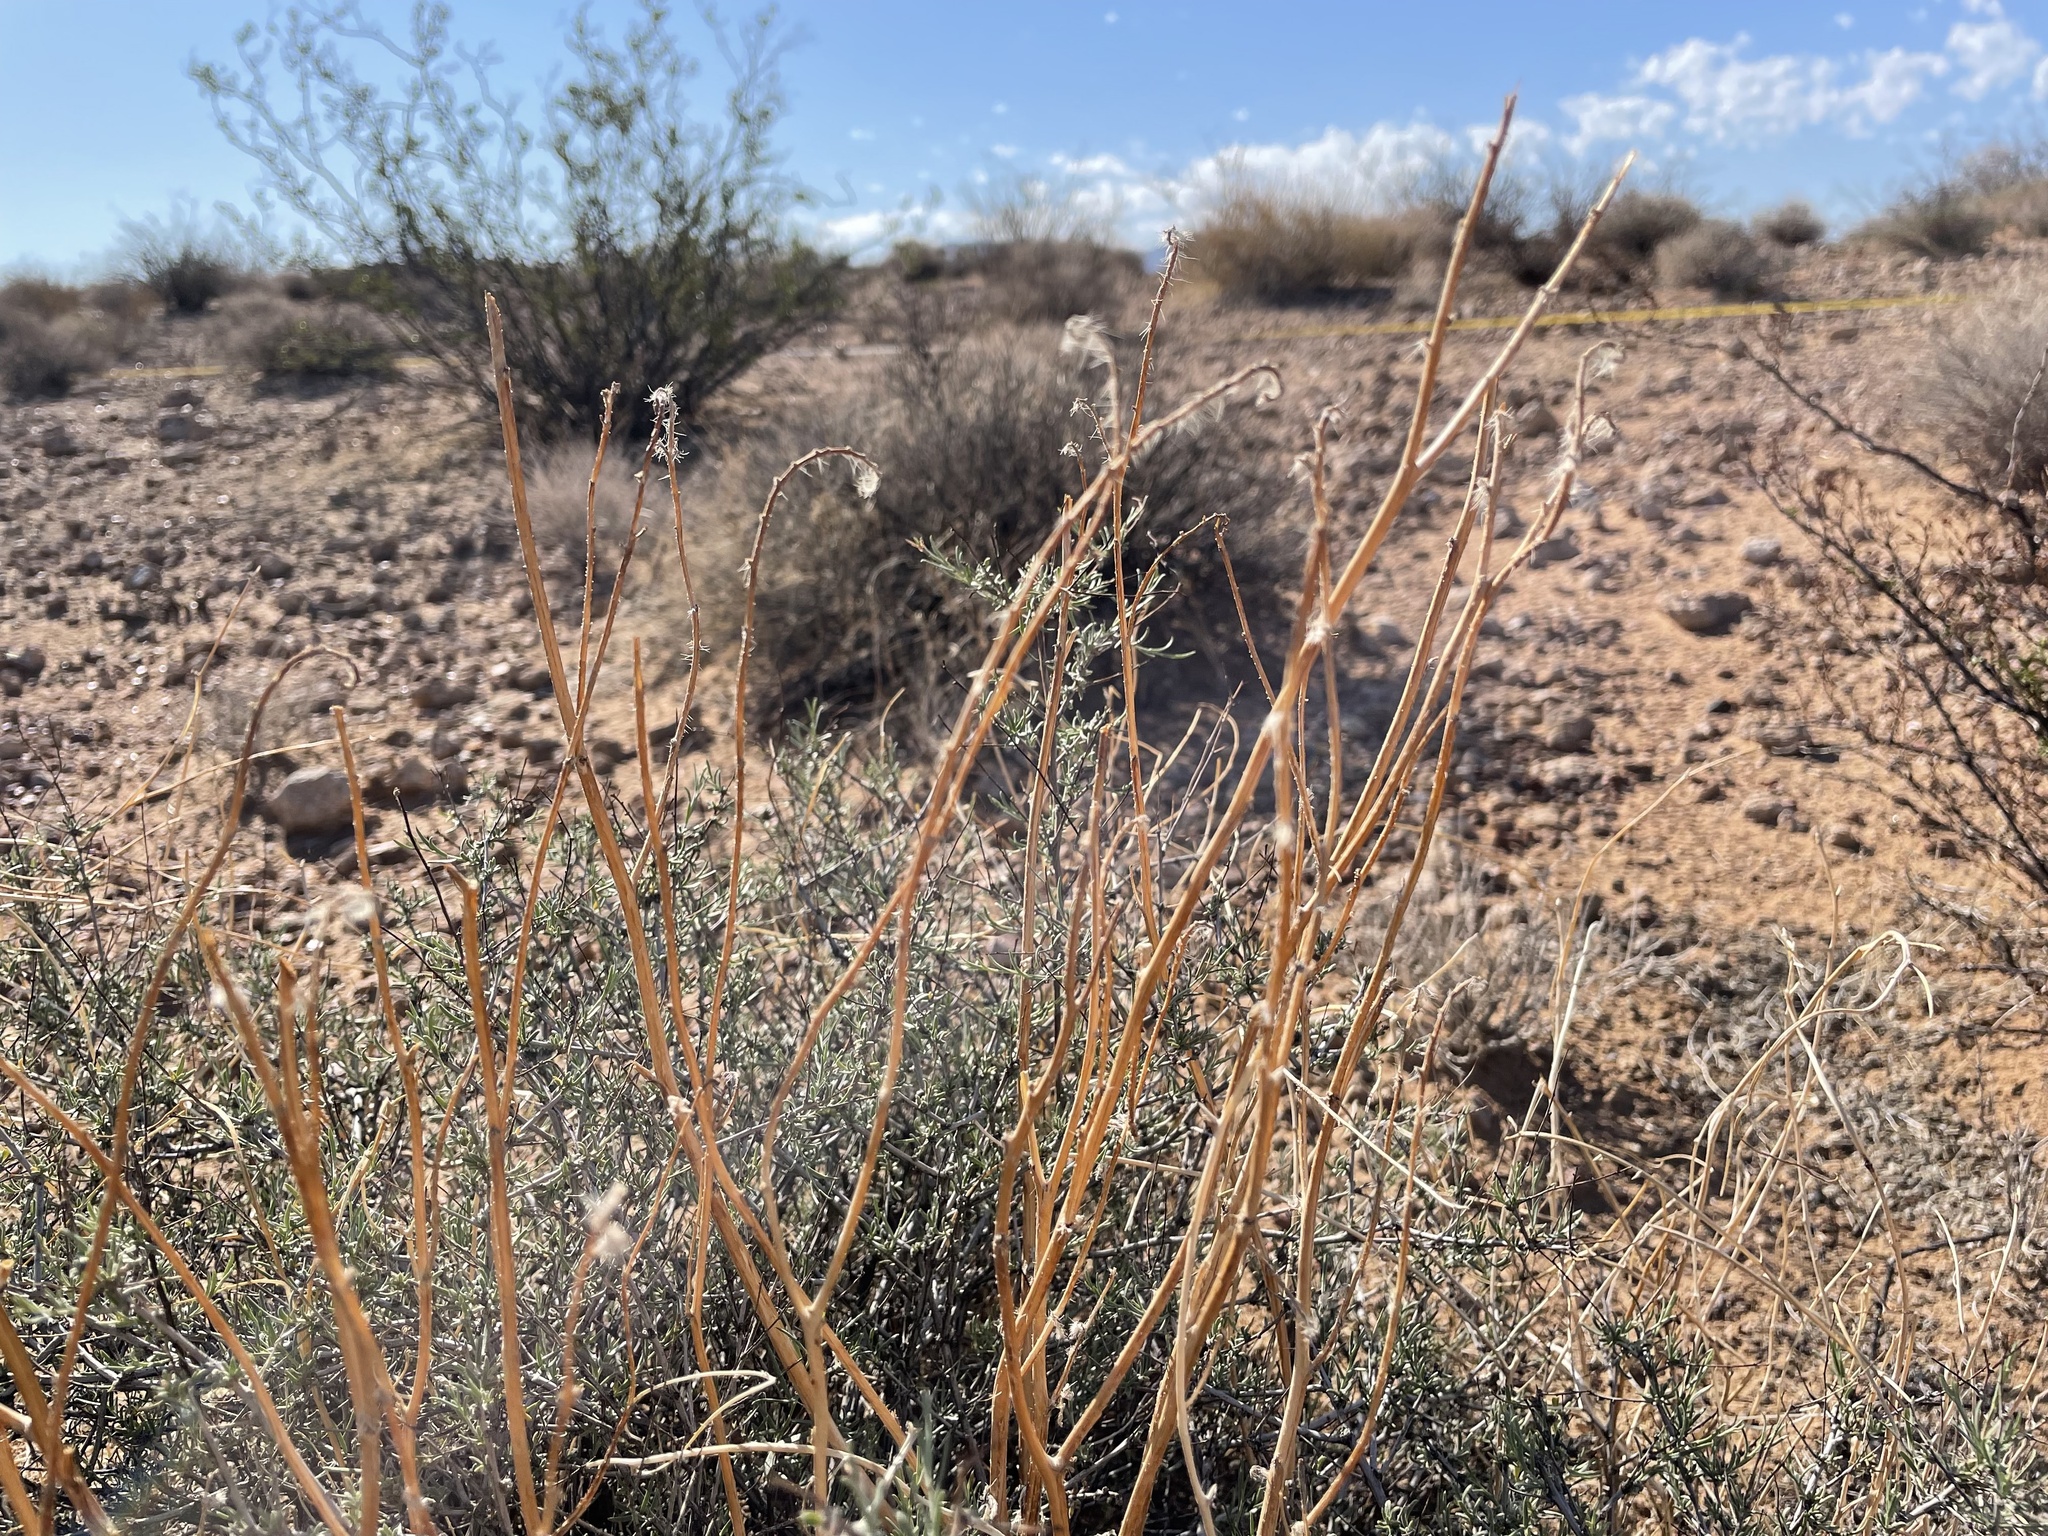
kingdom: Plantae
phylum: Tracheophyta
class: Magnoliopsida
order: Boraginales
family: Boraginaceae
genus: Amsinckia
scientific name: Amsinckia tessellata
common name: Tessellate fiddleneck
